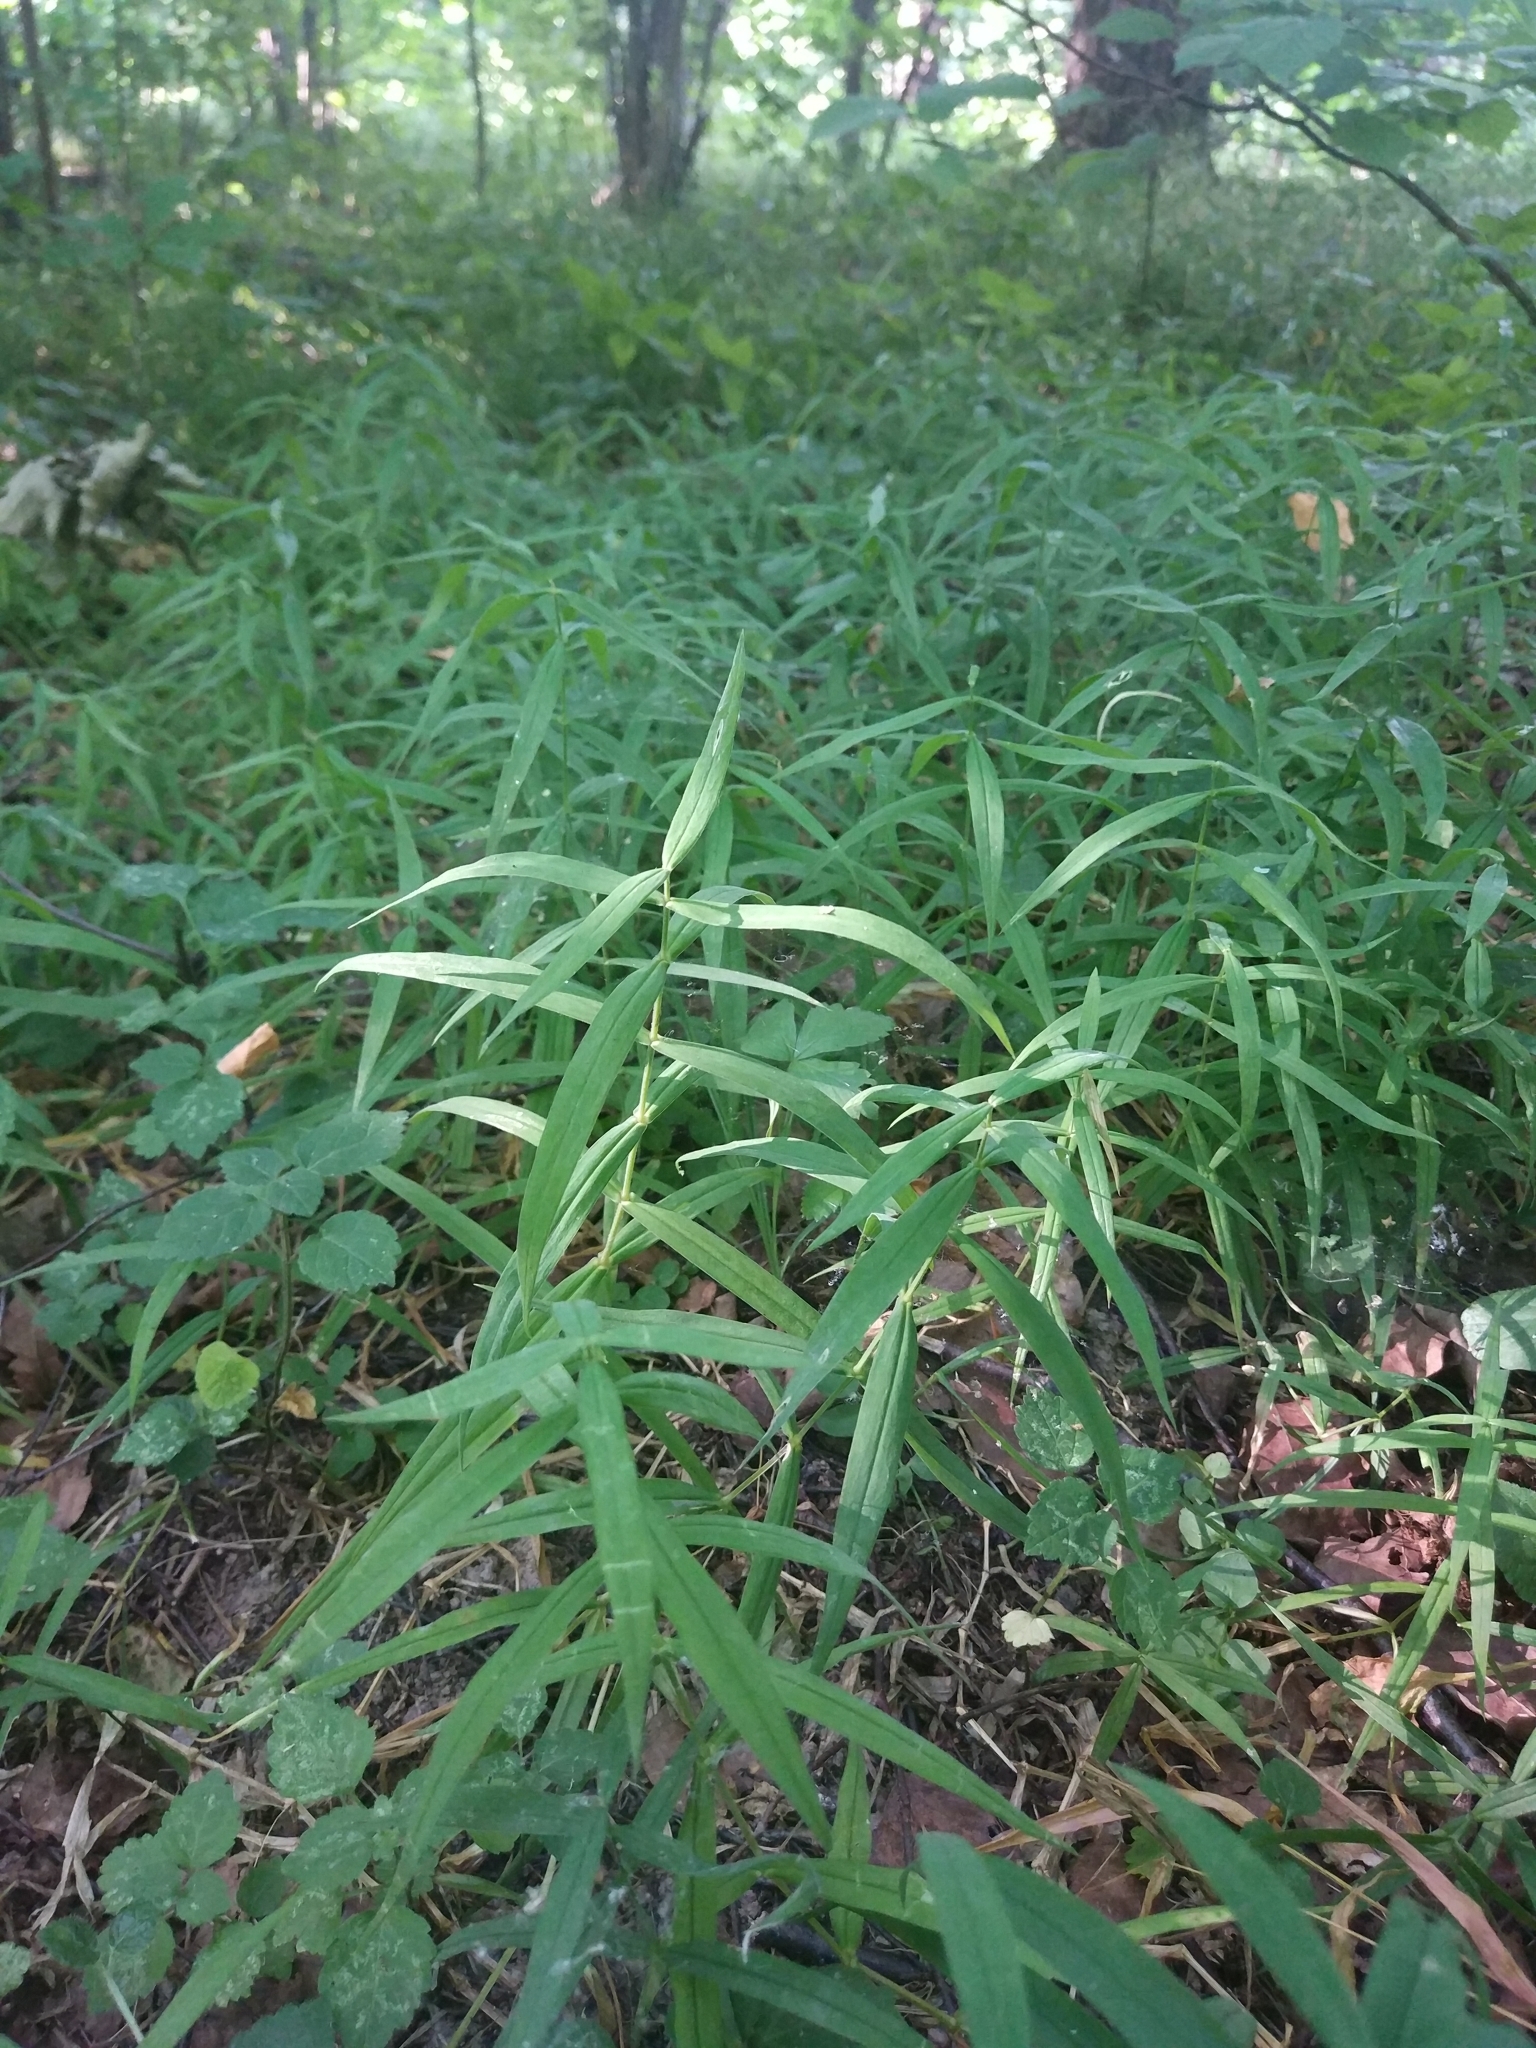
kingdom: Plantae
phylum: Tracheophyta
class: Magnoliopsida
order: Caryophyllales
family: Caryophyllaceae
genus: Rabelera
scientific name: Rabelera holostea
